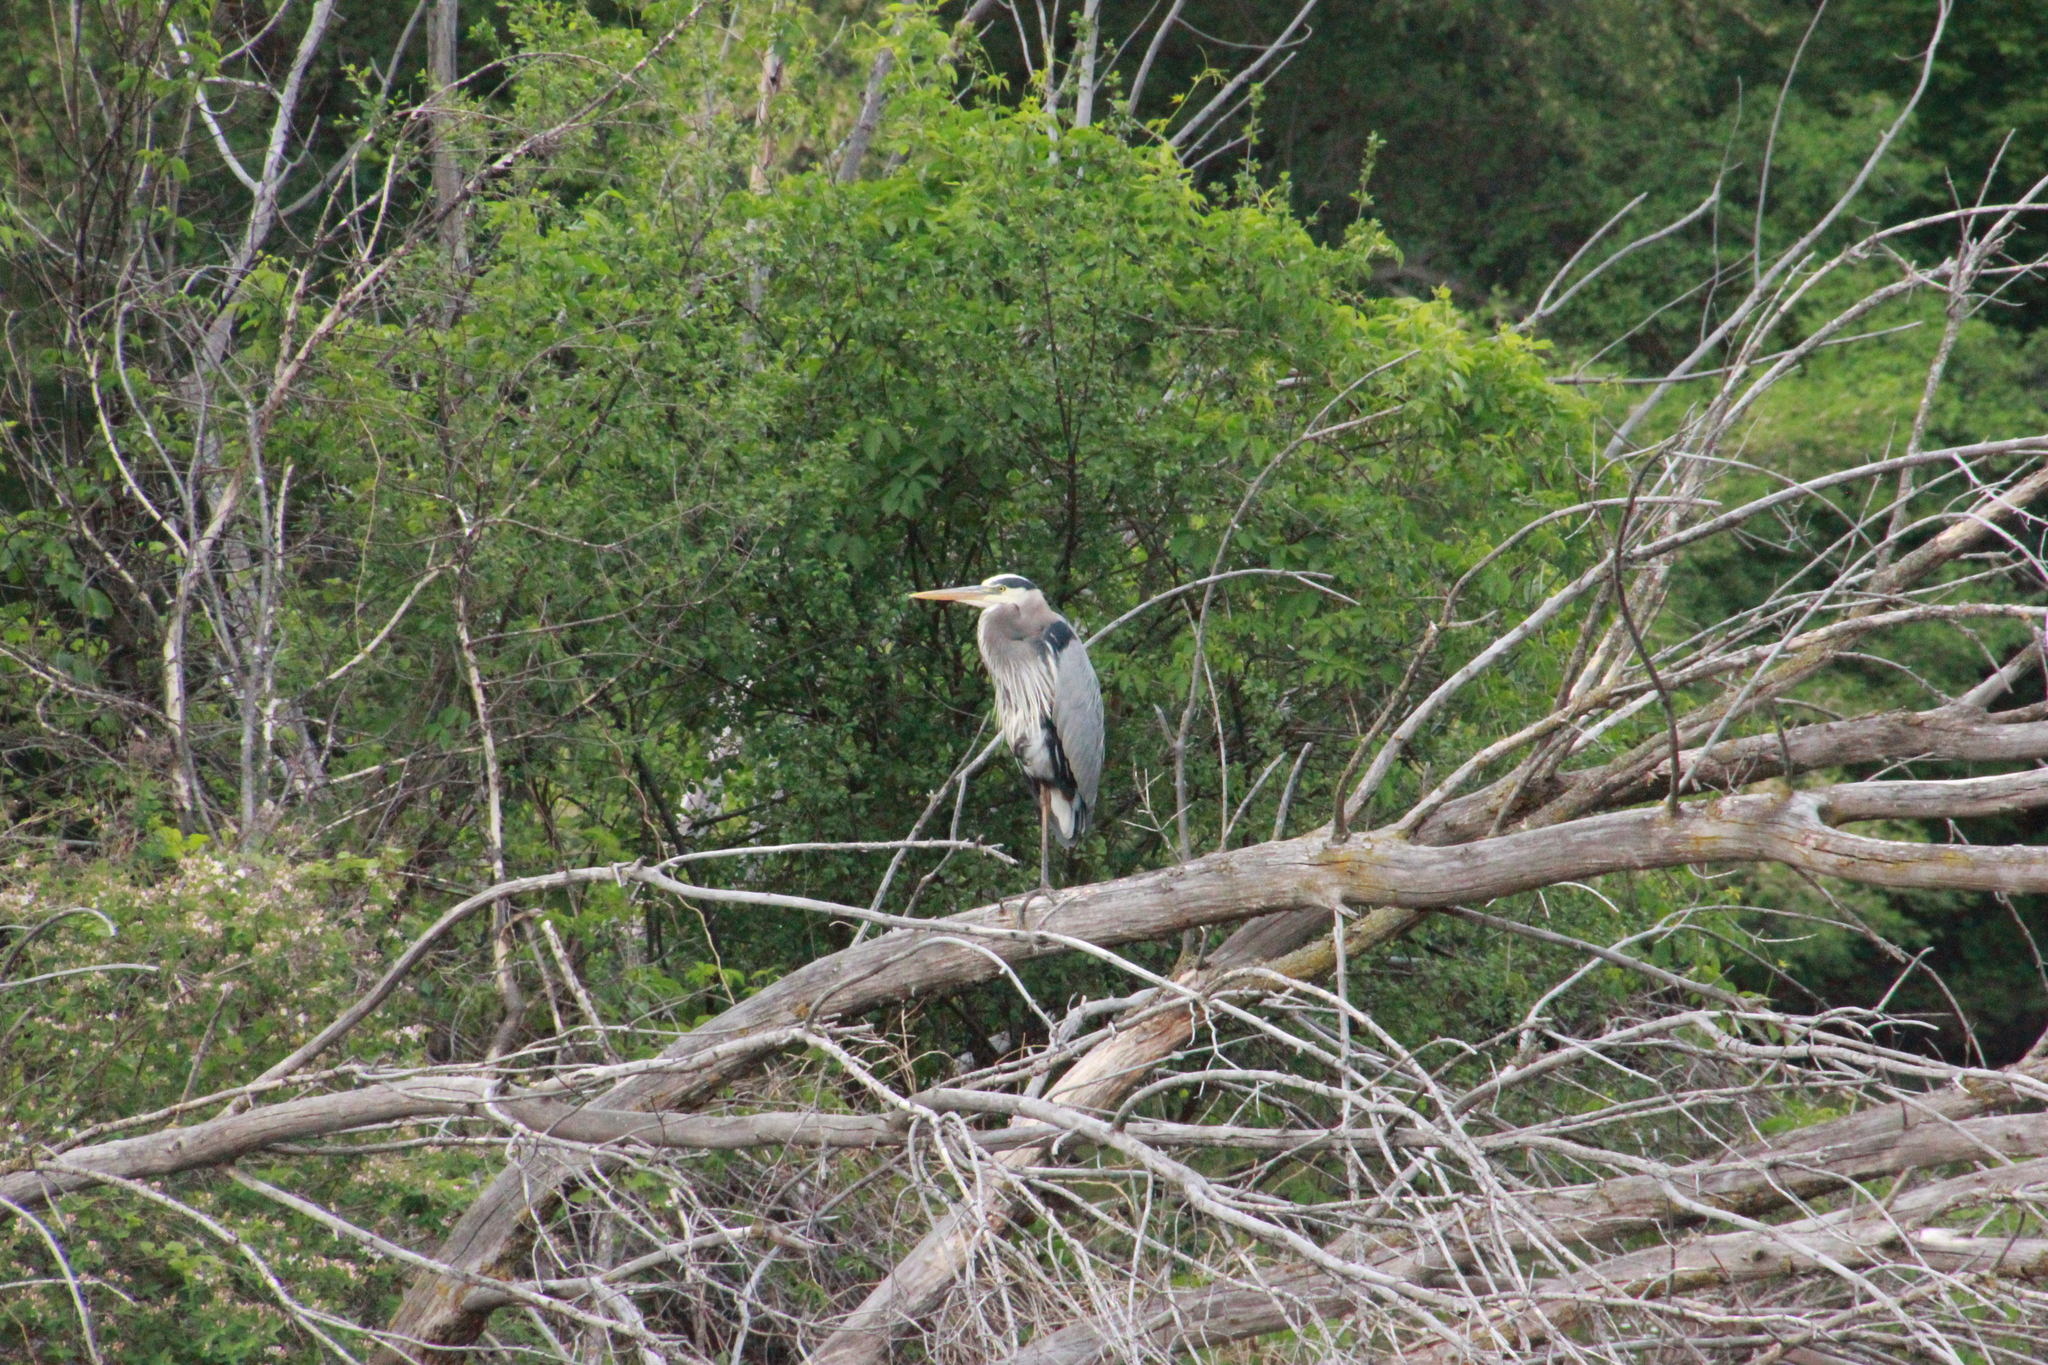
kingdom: Animalia
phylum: Chordata
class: Aves
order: Pelecaniformes
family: Ardeidae
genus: Ardea
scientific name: Ardea herodias
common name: Great blue heron
